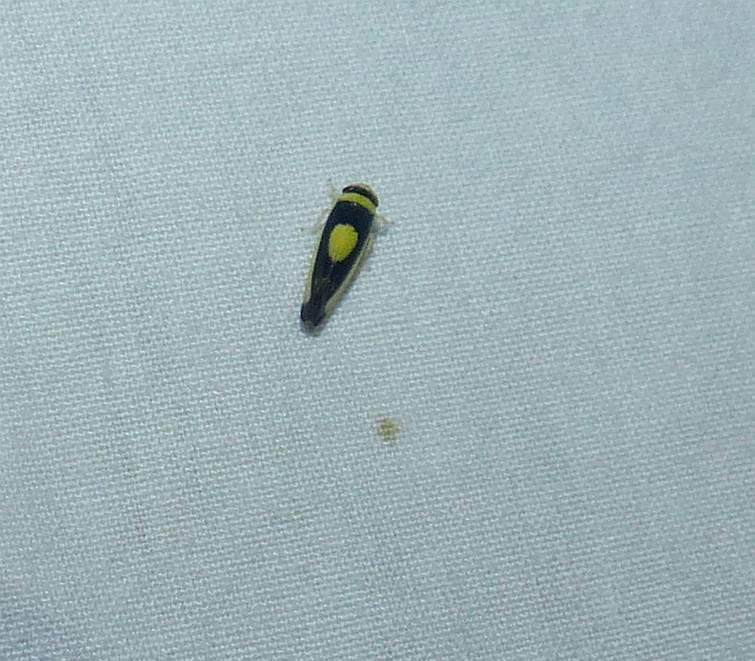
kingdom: Animalia
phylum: Arthropoda
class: Insecta
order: Hemiptera
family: Cicadellidae
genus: Colladonus
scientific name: Colladonus clitellarius
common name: The saddleback leafhopper
